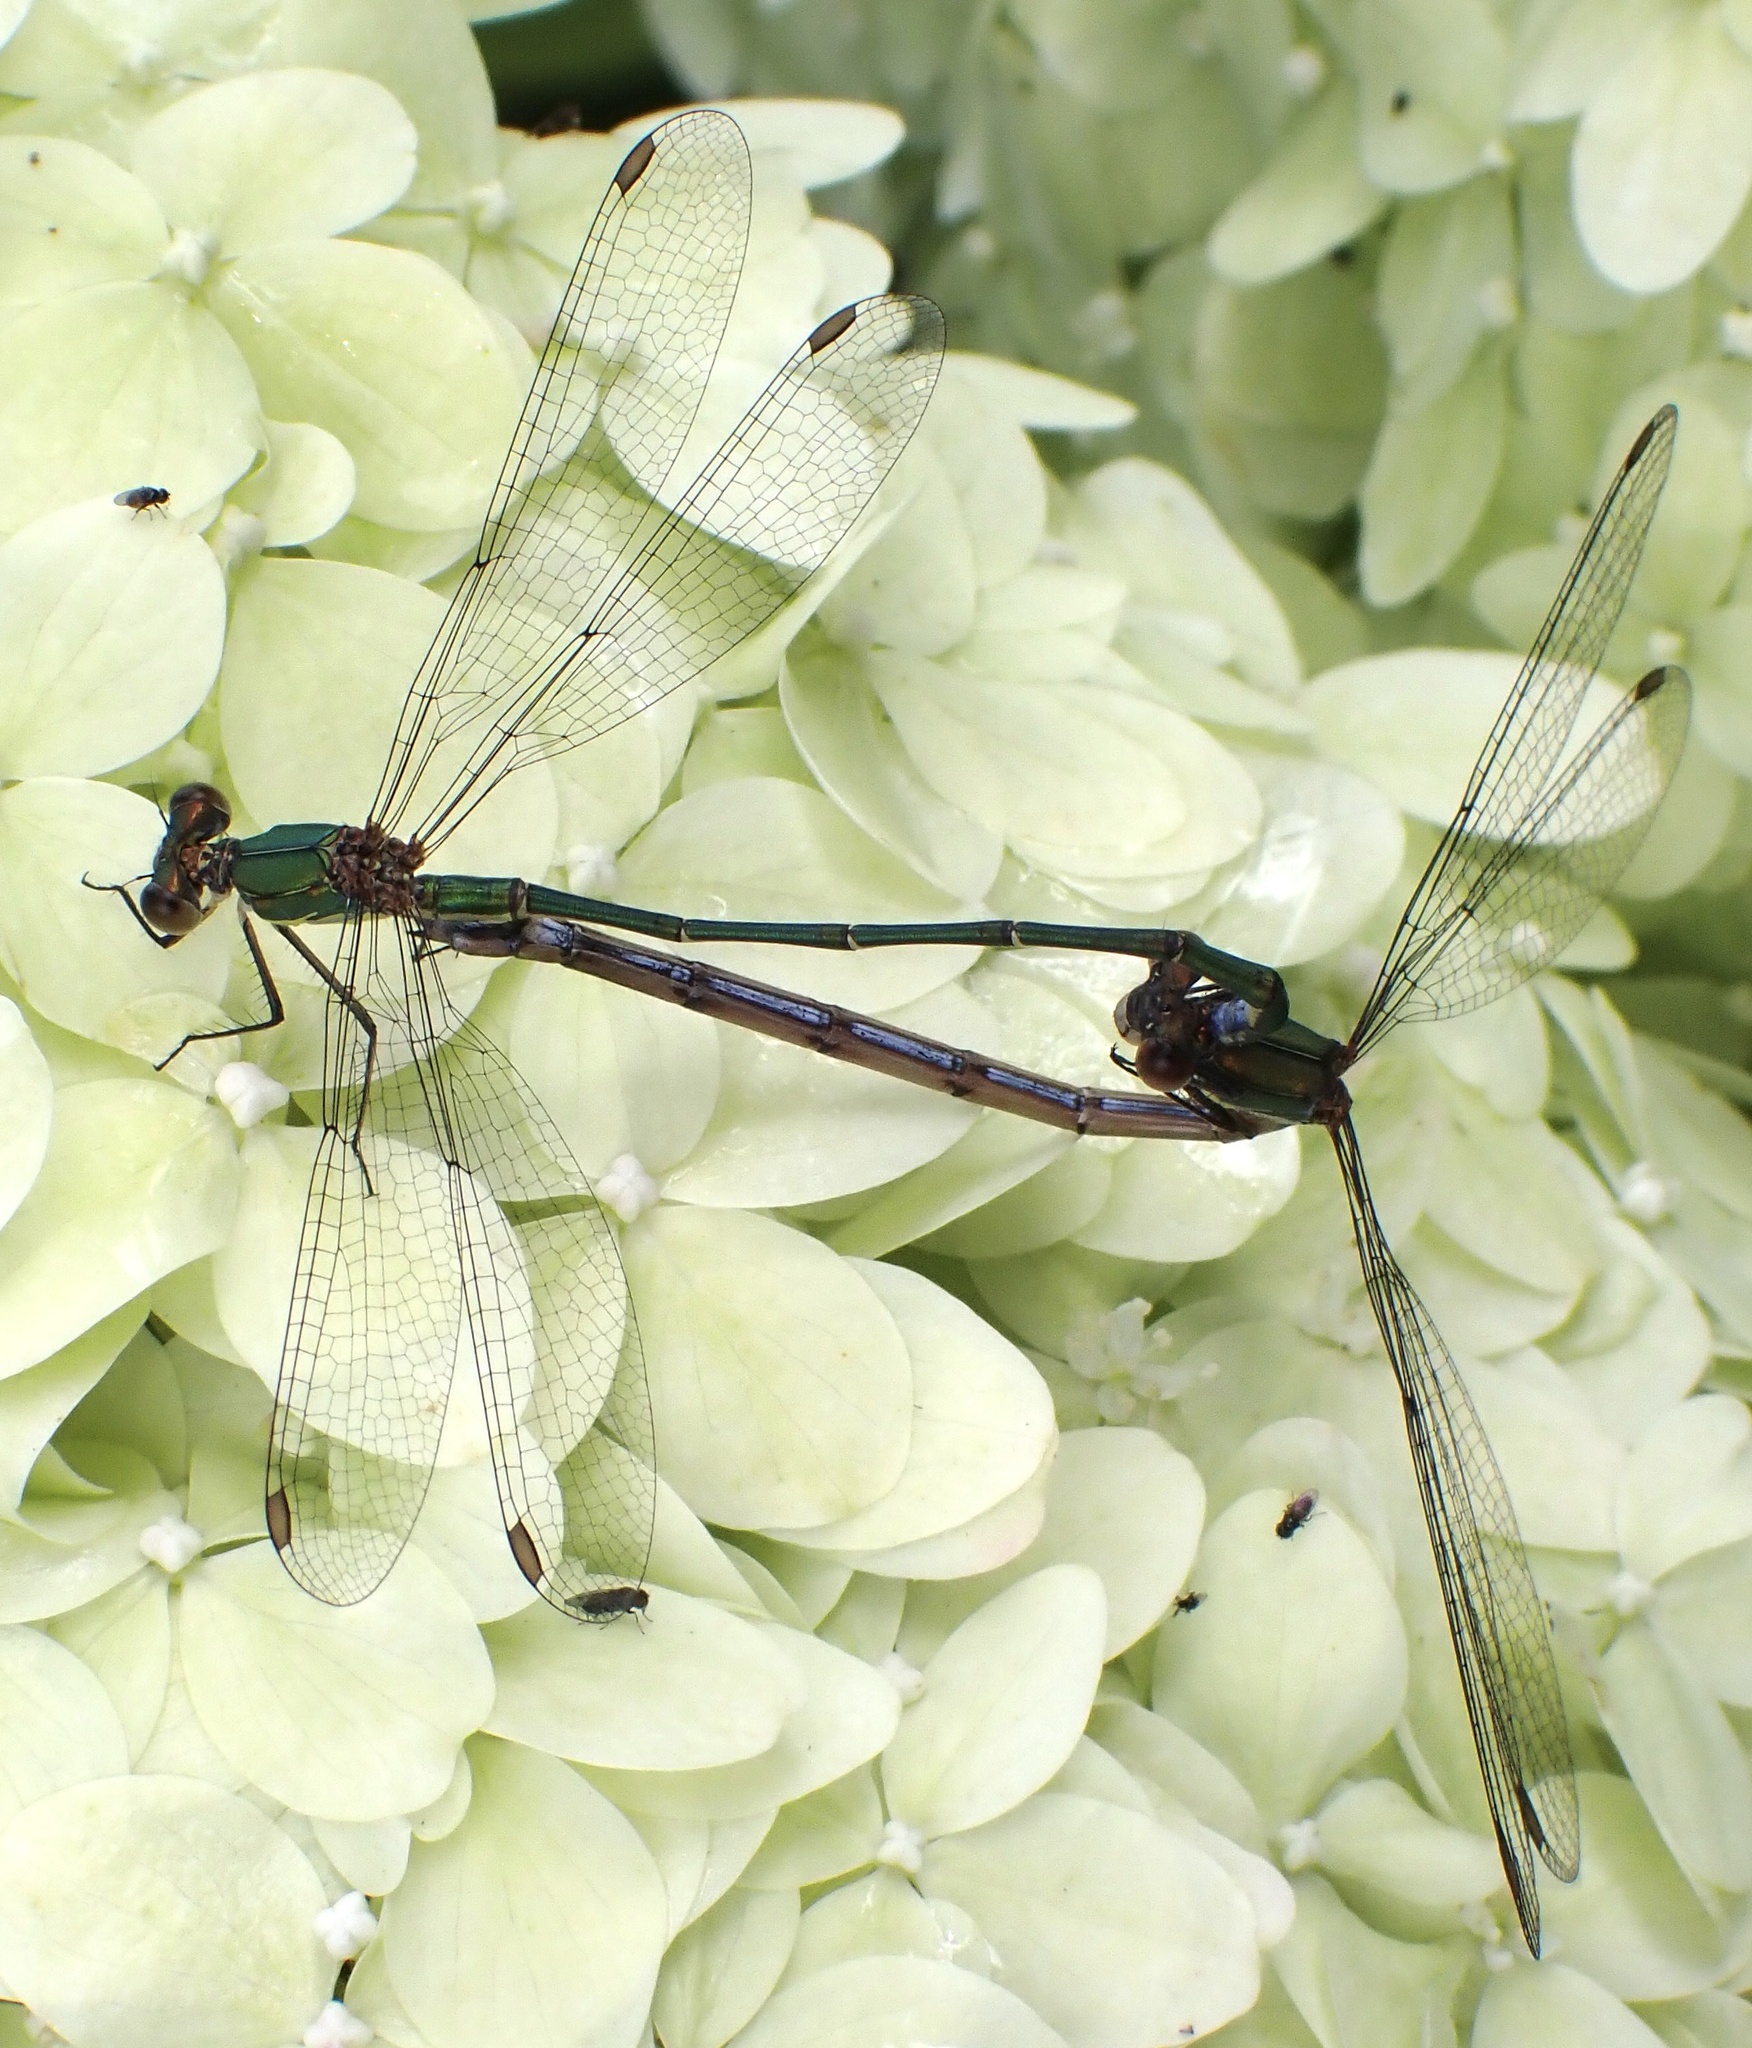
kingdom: Animalia
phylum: Arthropoda
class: Insecta
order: Odonata
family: Lestidae
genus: Chalcolestes
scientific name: Chalcolestes viridis
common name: Green emerald damselfly
